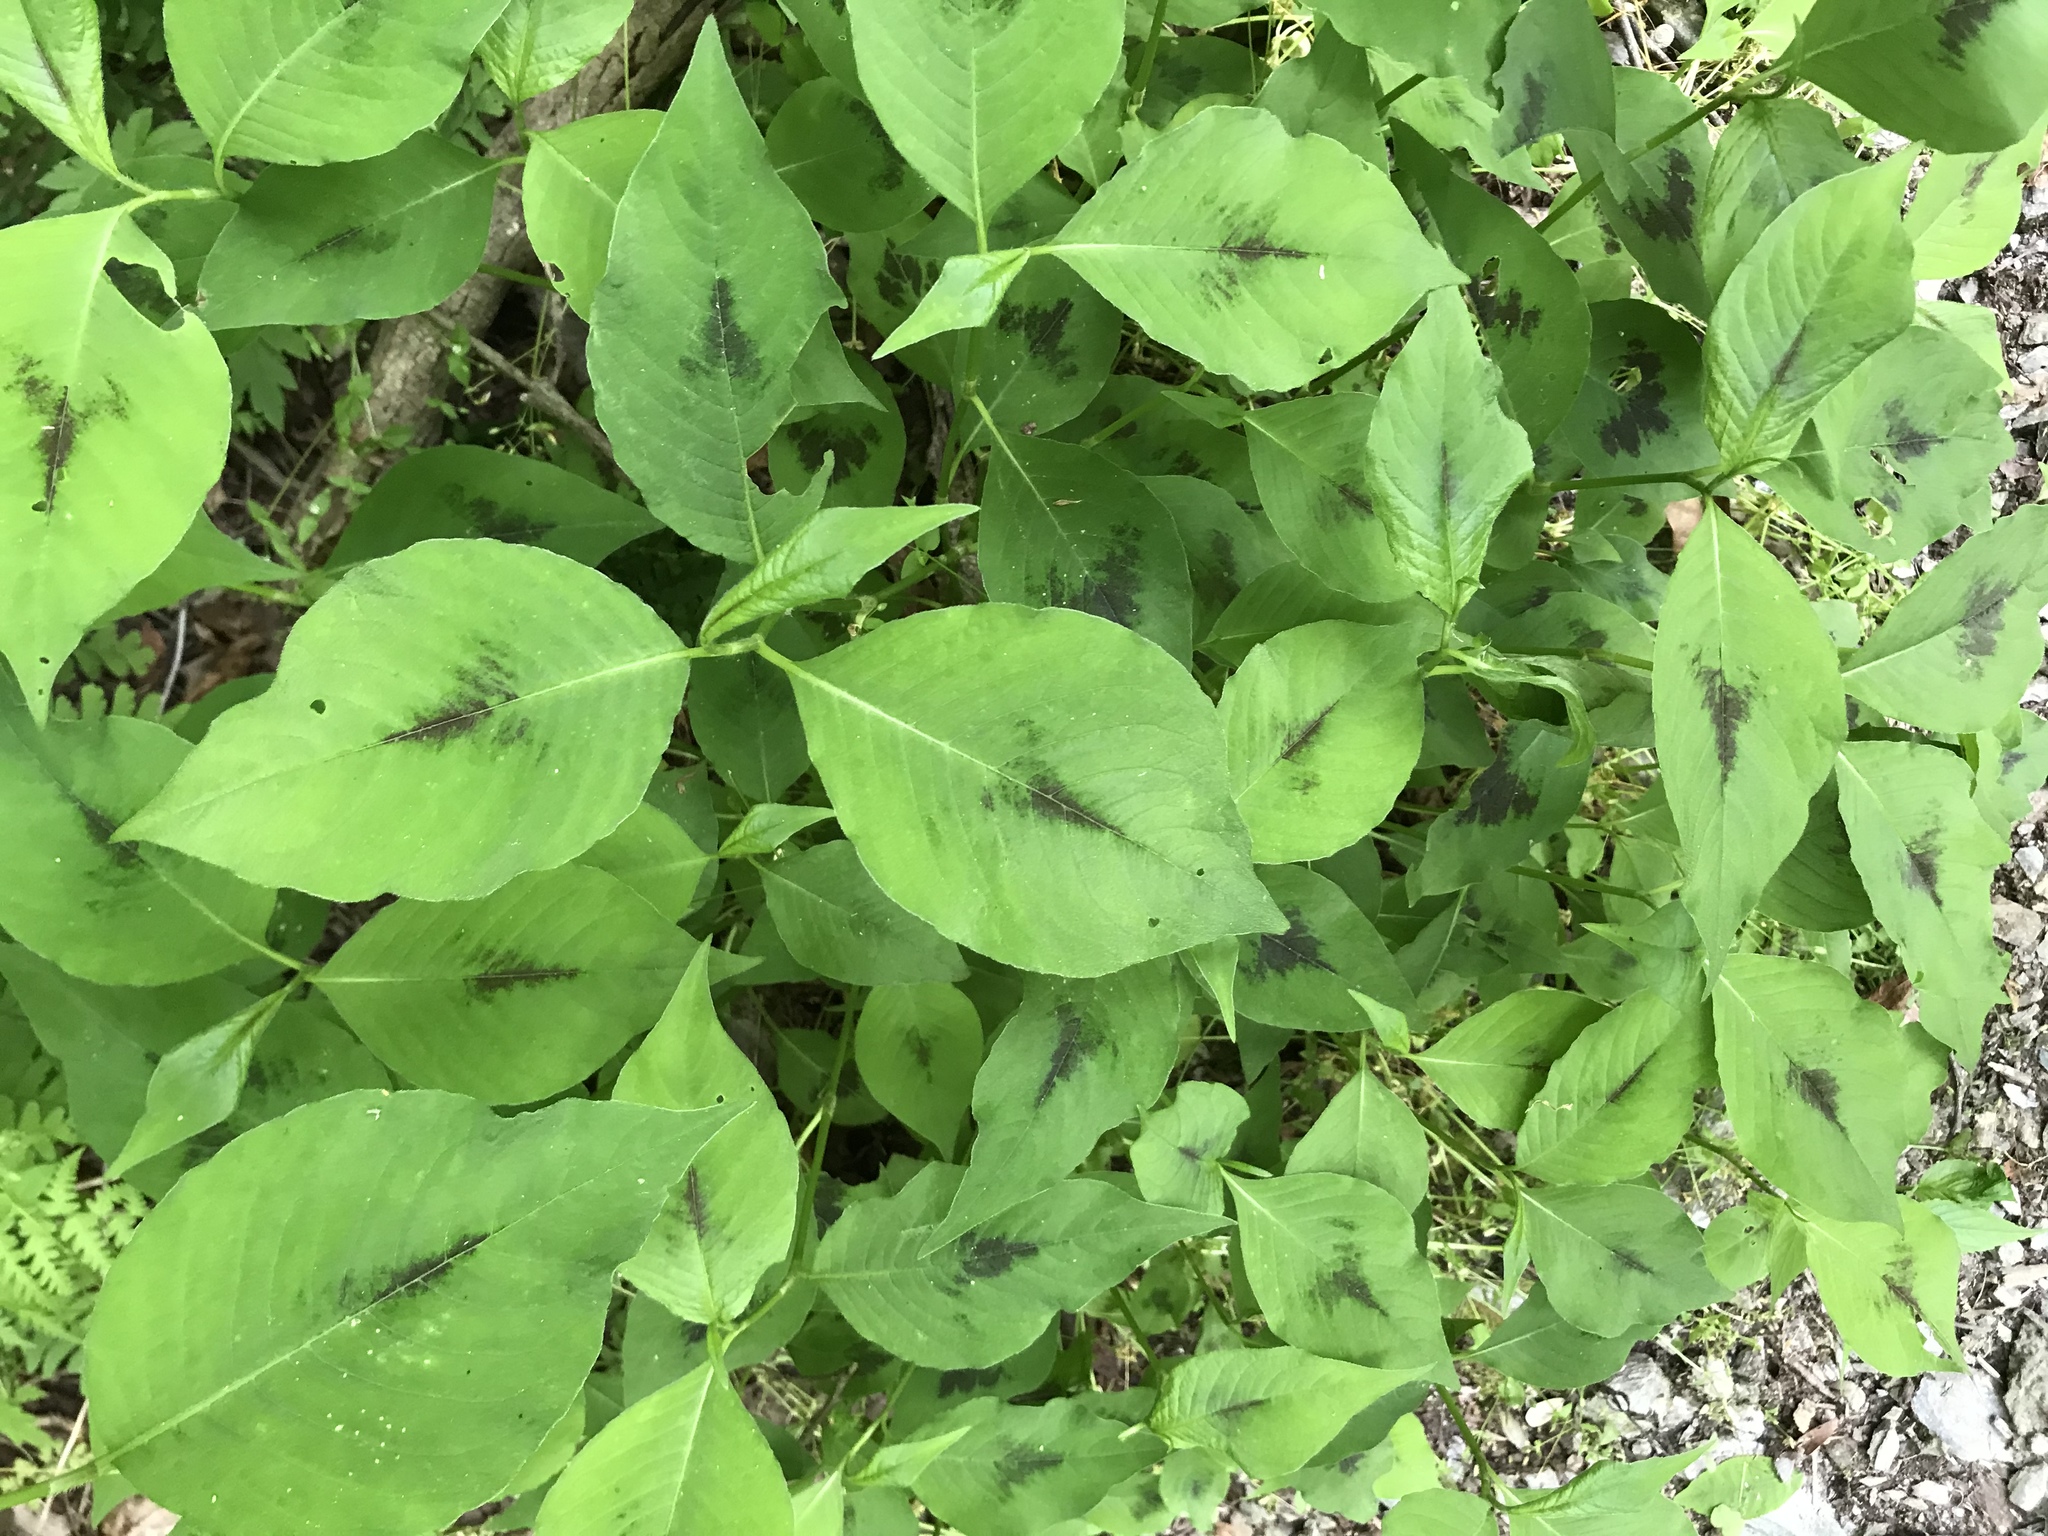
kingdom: Plantae
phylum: Tracheophyta
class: Magnoliopsida
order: Caryophyllales
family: Polygonaceae
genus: Persicaria
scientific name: Persicaria virginiana
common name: Jumpseed
